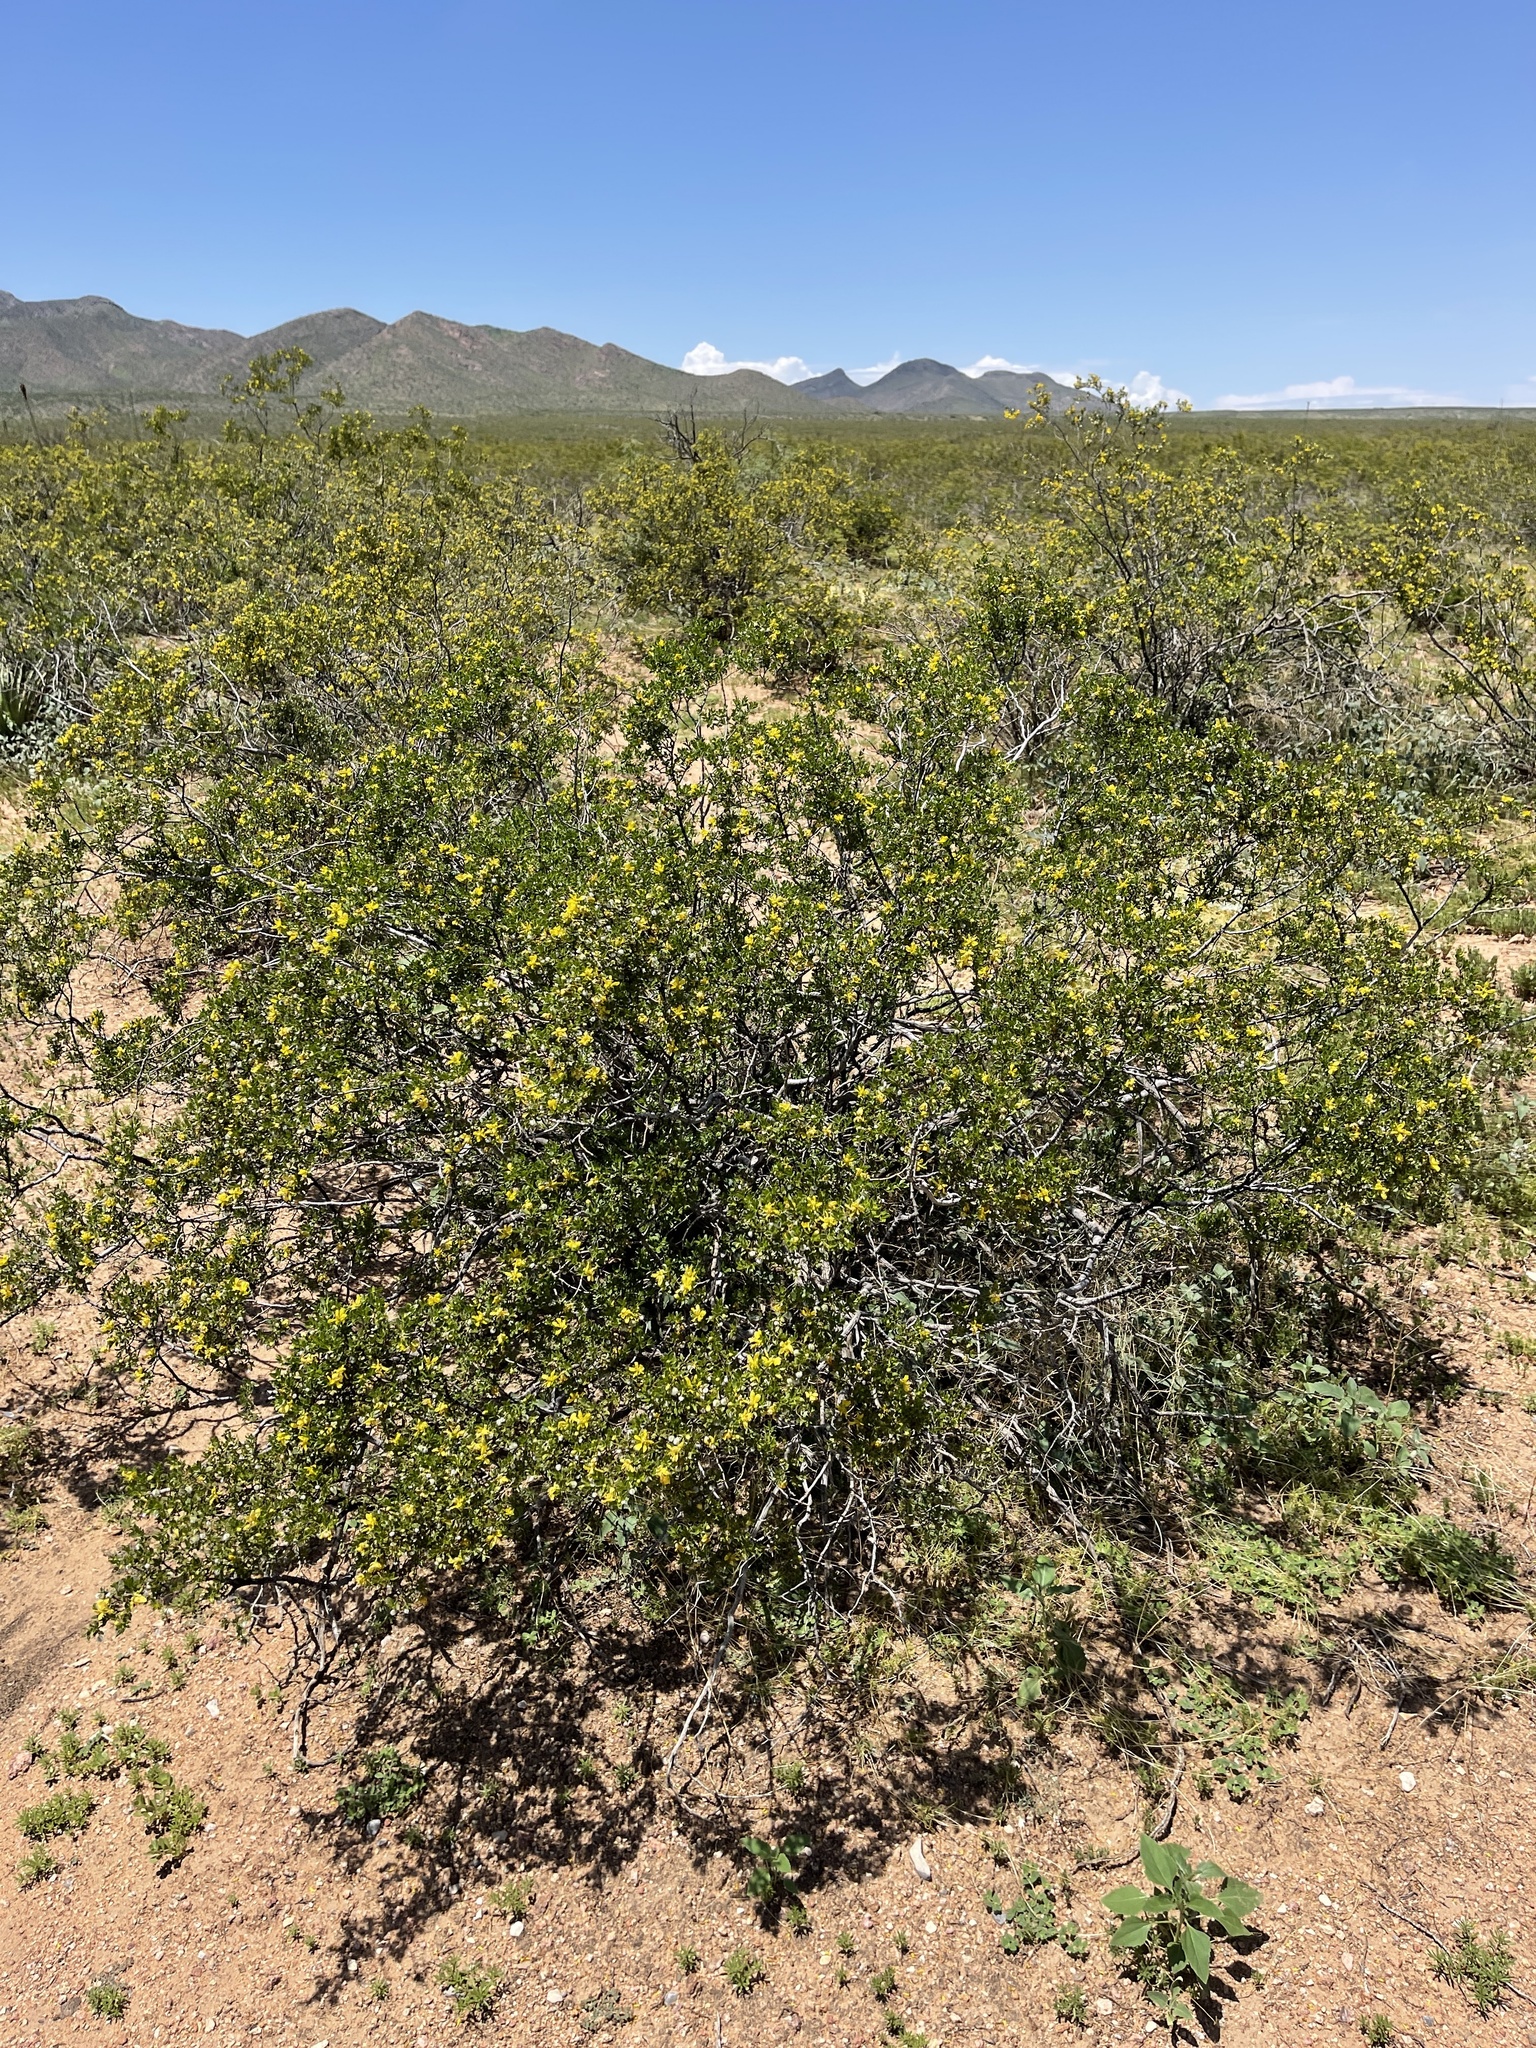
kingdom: Plantae
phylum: Tracheophyta
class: Magnoliopsida
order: Zygophyllales
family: Zygophyllaceae
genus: Larrea
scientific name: Larrea tridentata
